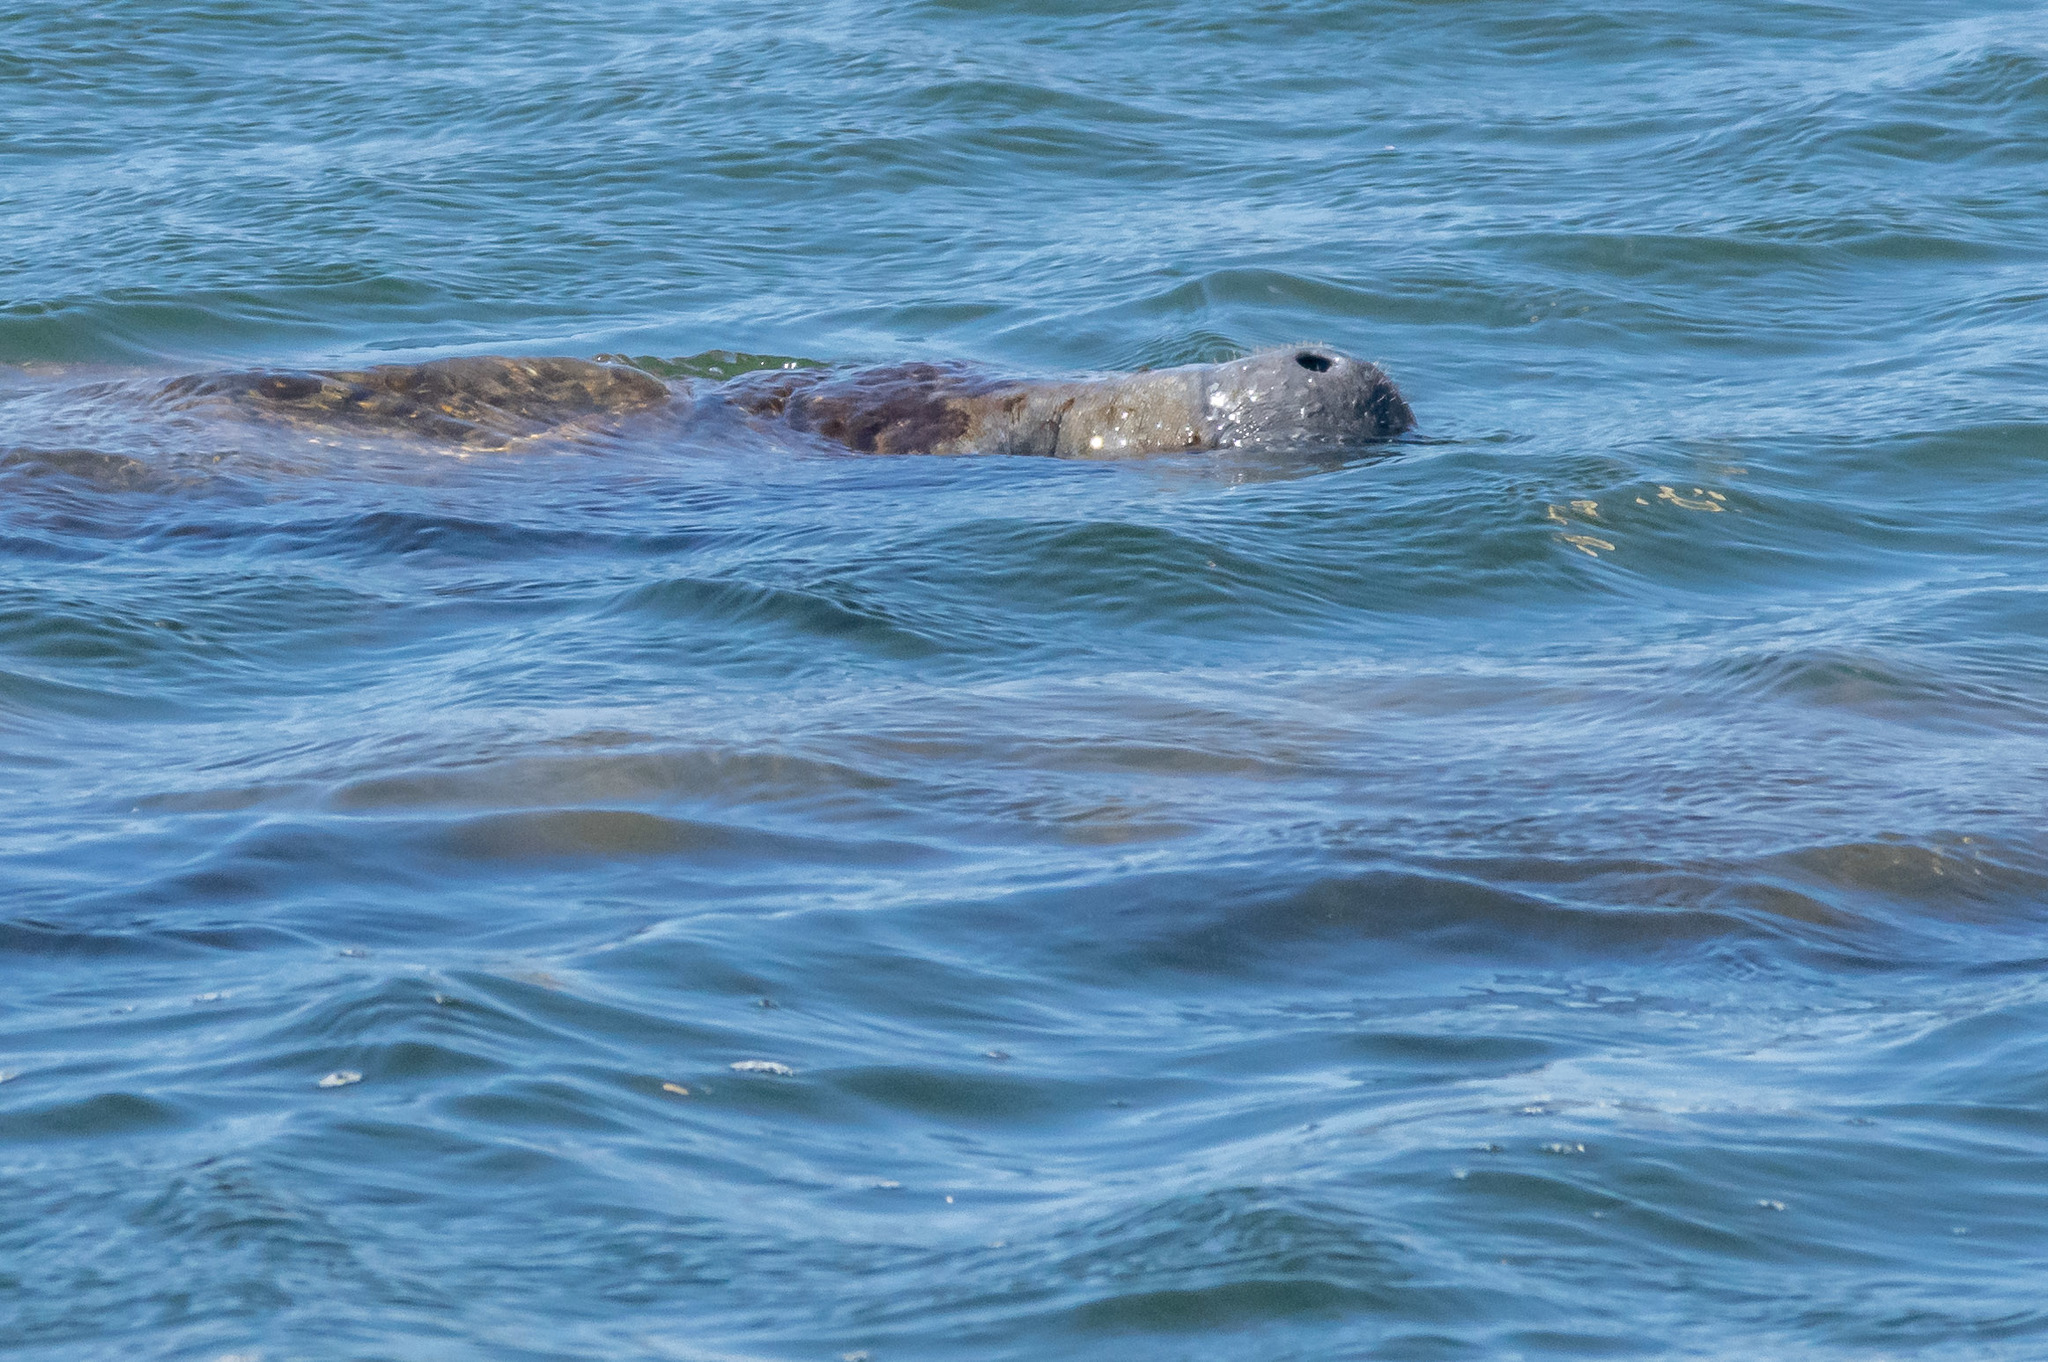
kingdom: Animalia
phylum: Chordata
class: Mammalia
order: Sirenia
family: Trichechidae
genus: Trichechus
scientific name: Trichechus manatus
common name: West indian manatee
